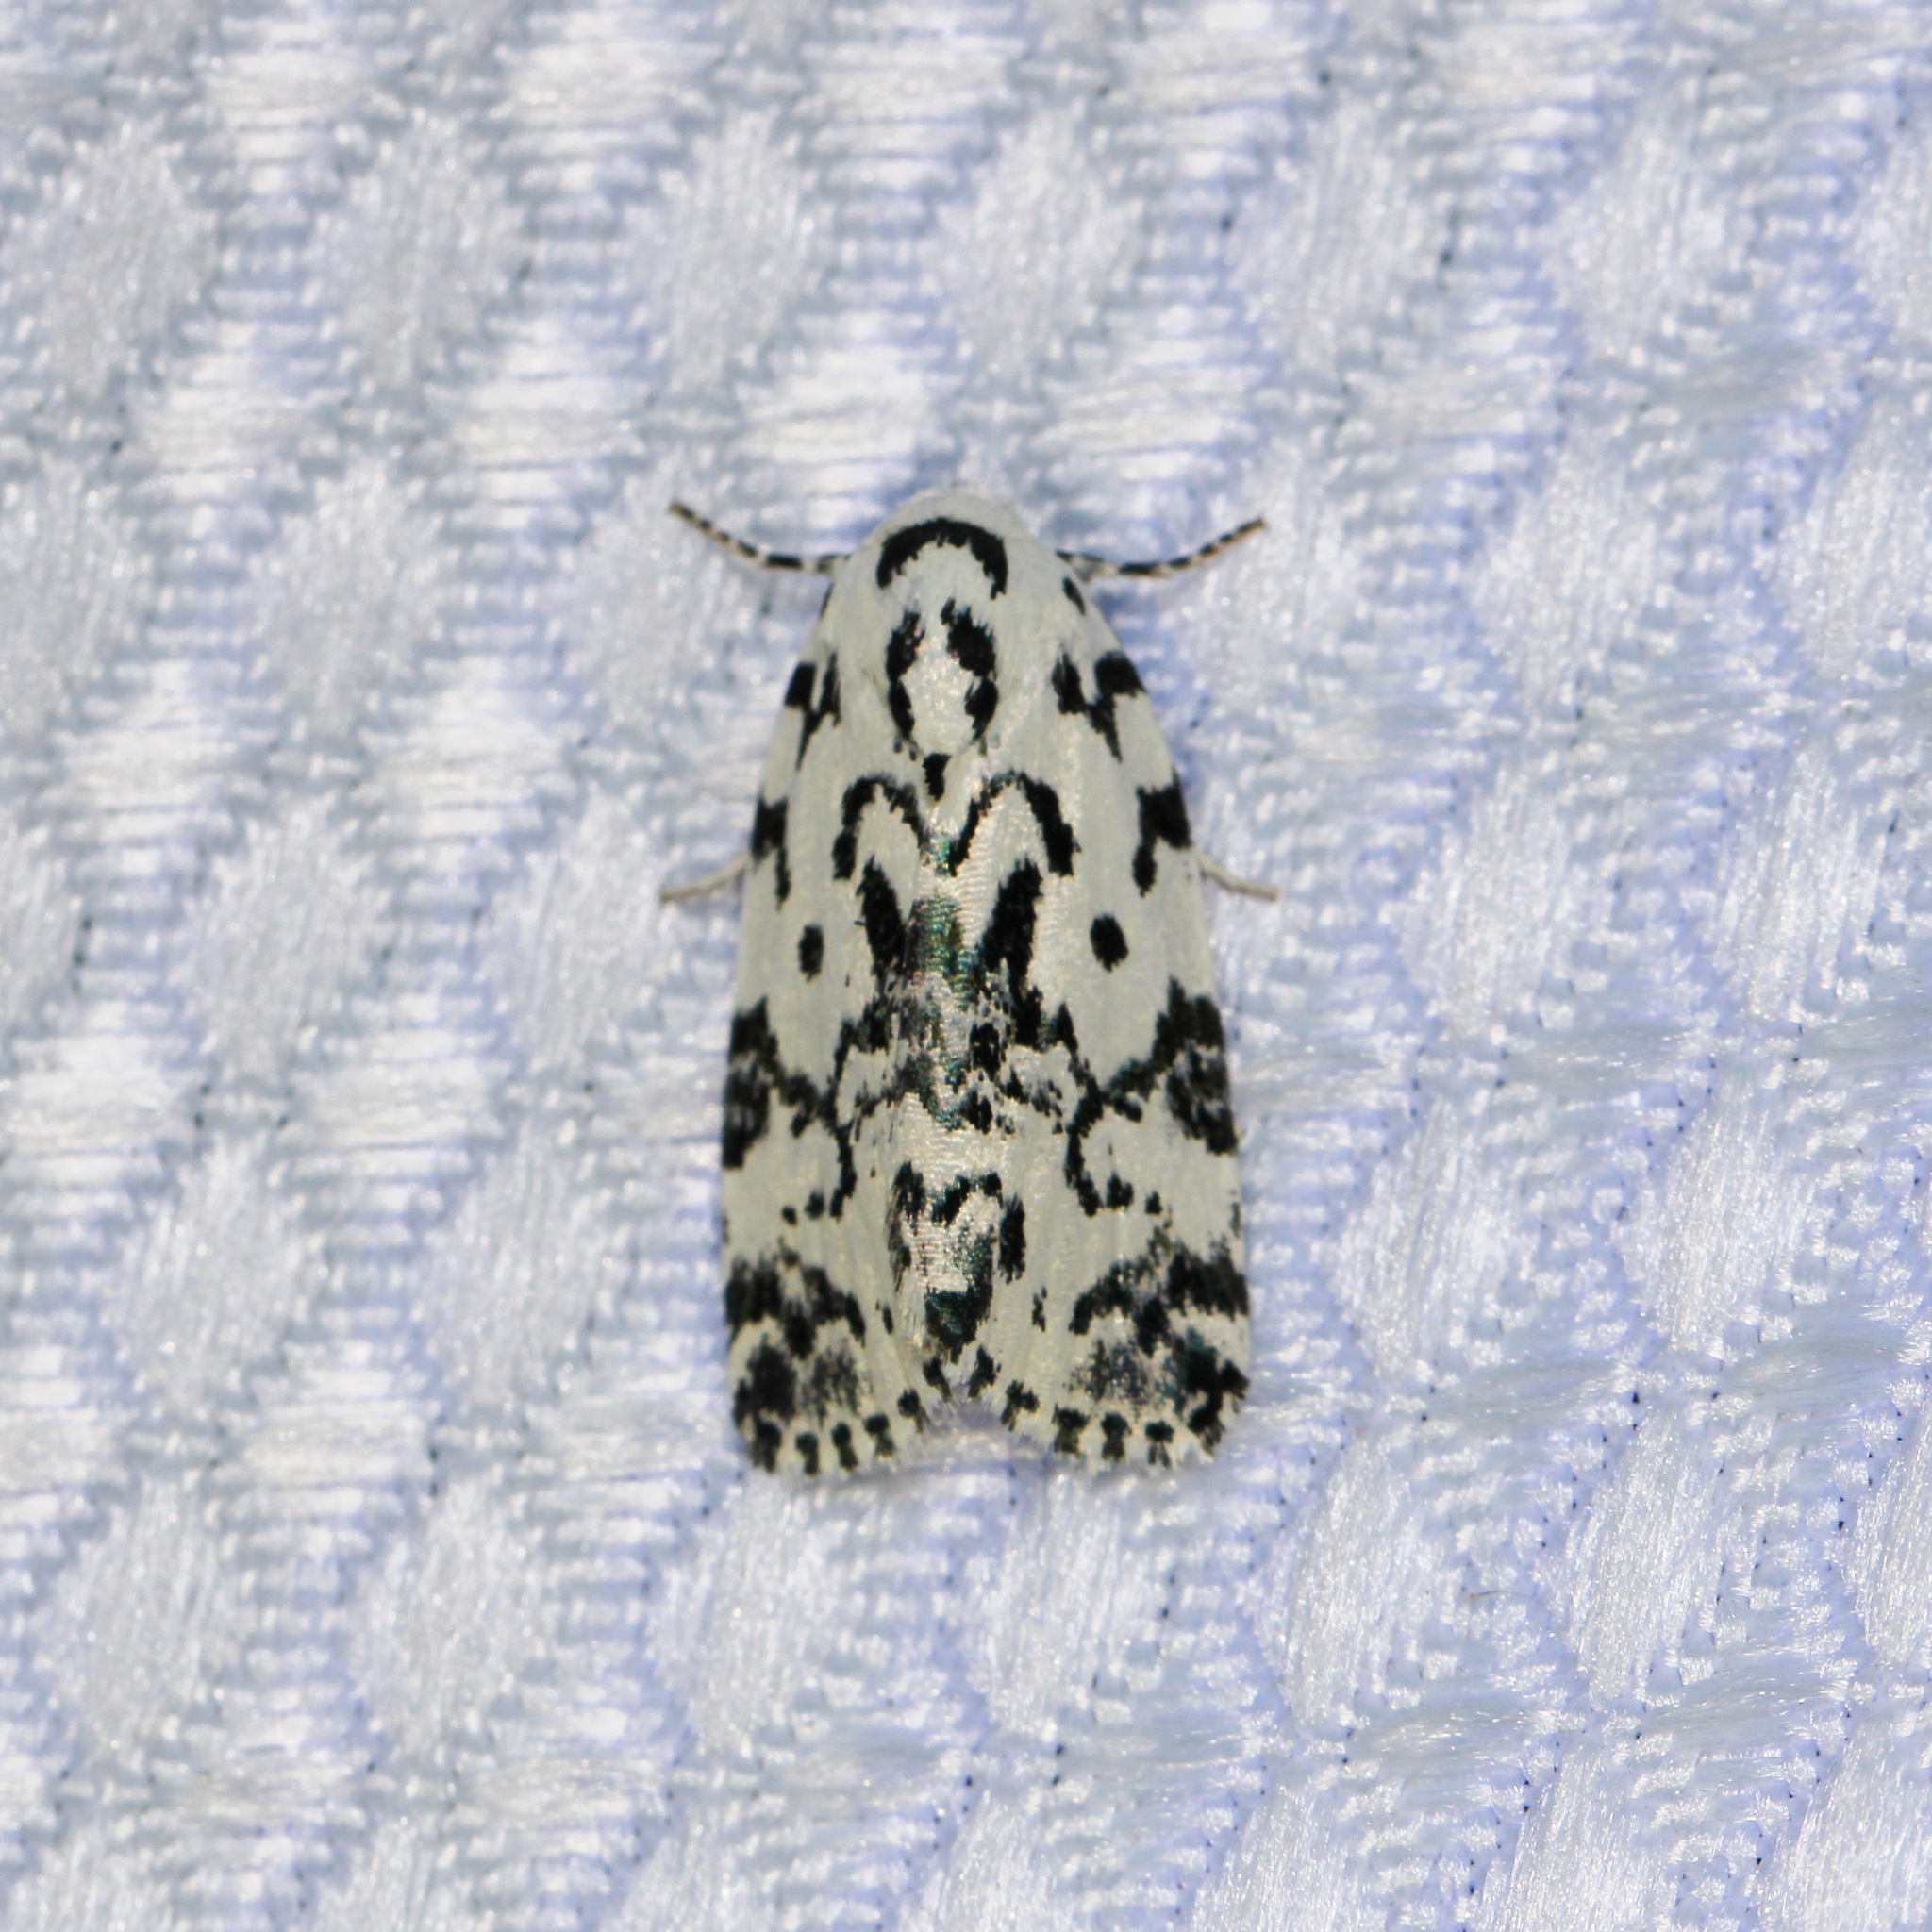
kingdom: Animalia
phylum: Arthropoda
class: Insecta
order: Lepidoptera
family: Noctuidae
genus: Polygrammate
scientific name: Polygrammate hebraeicum
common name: Hebrew moth
